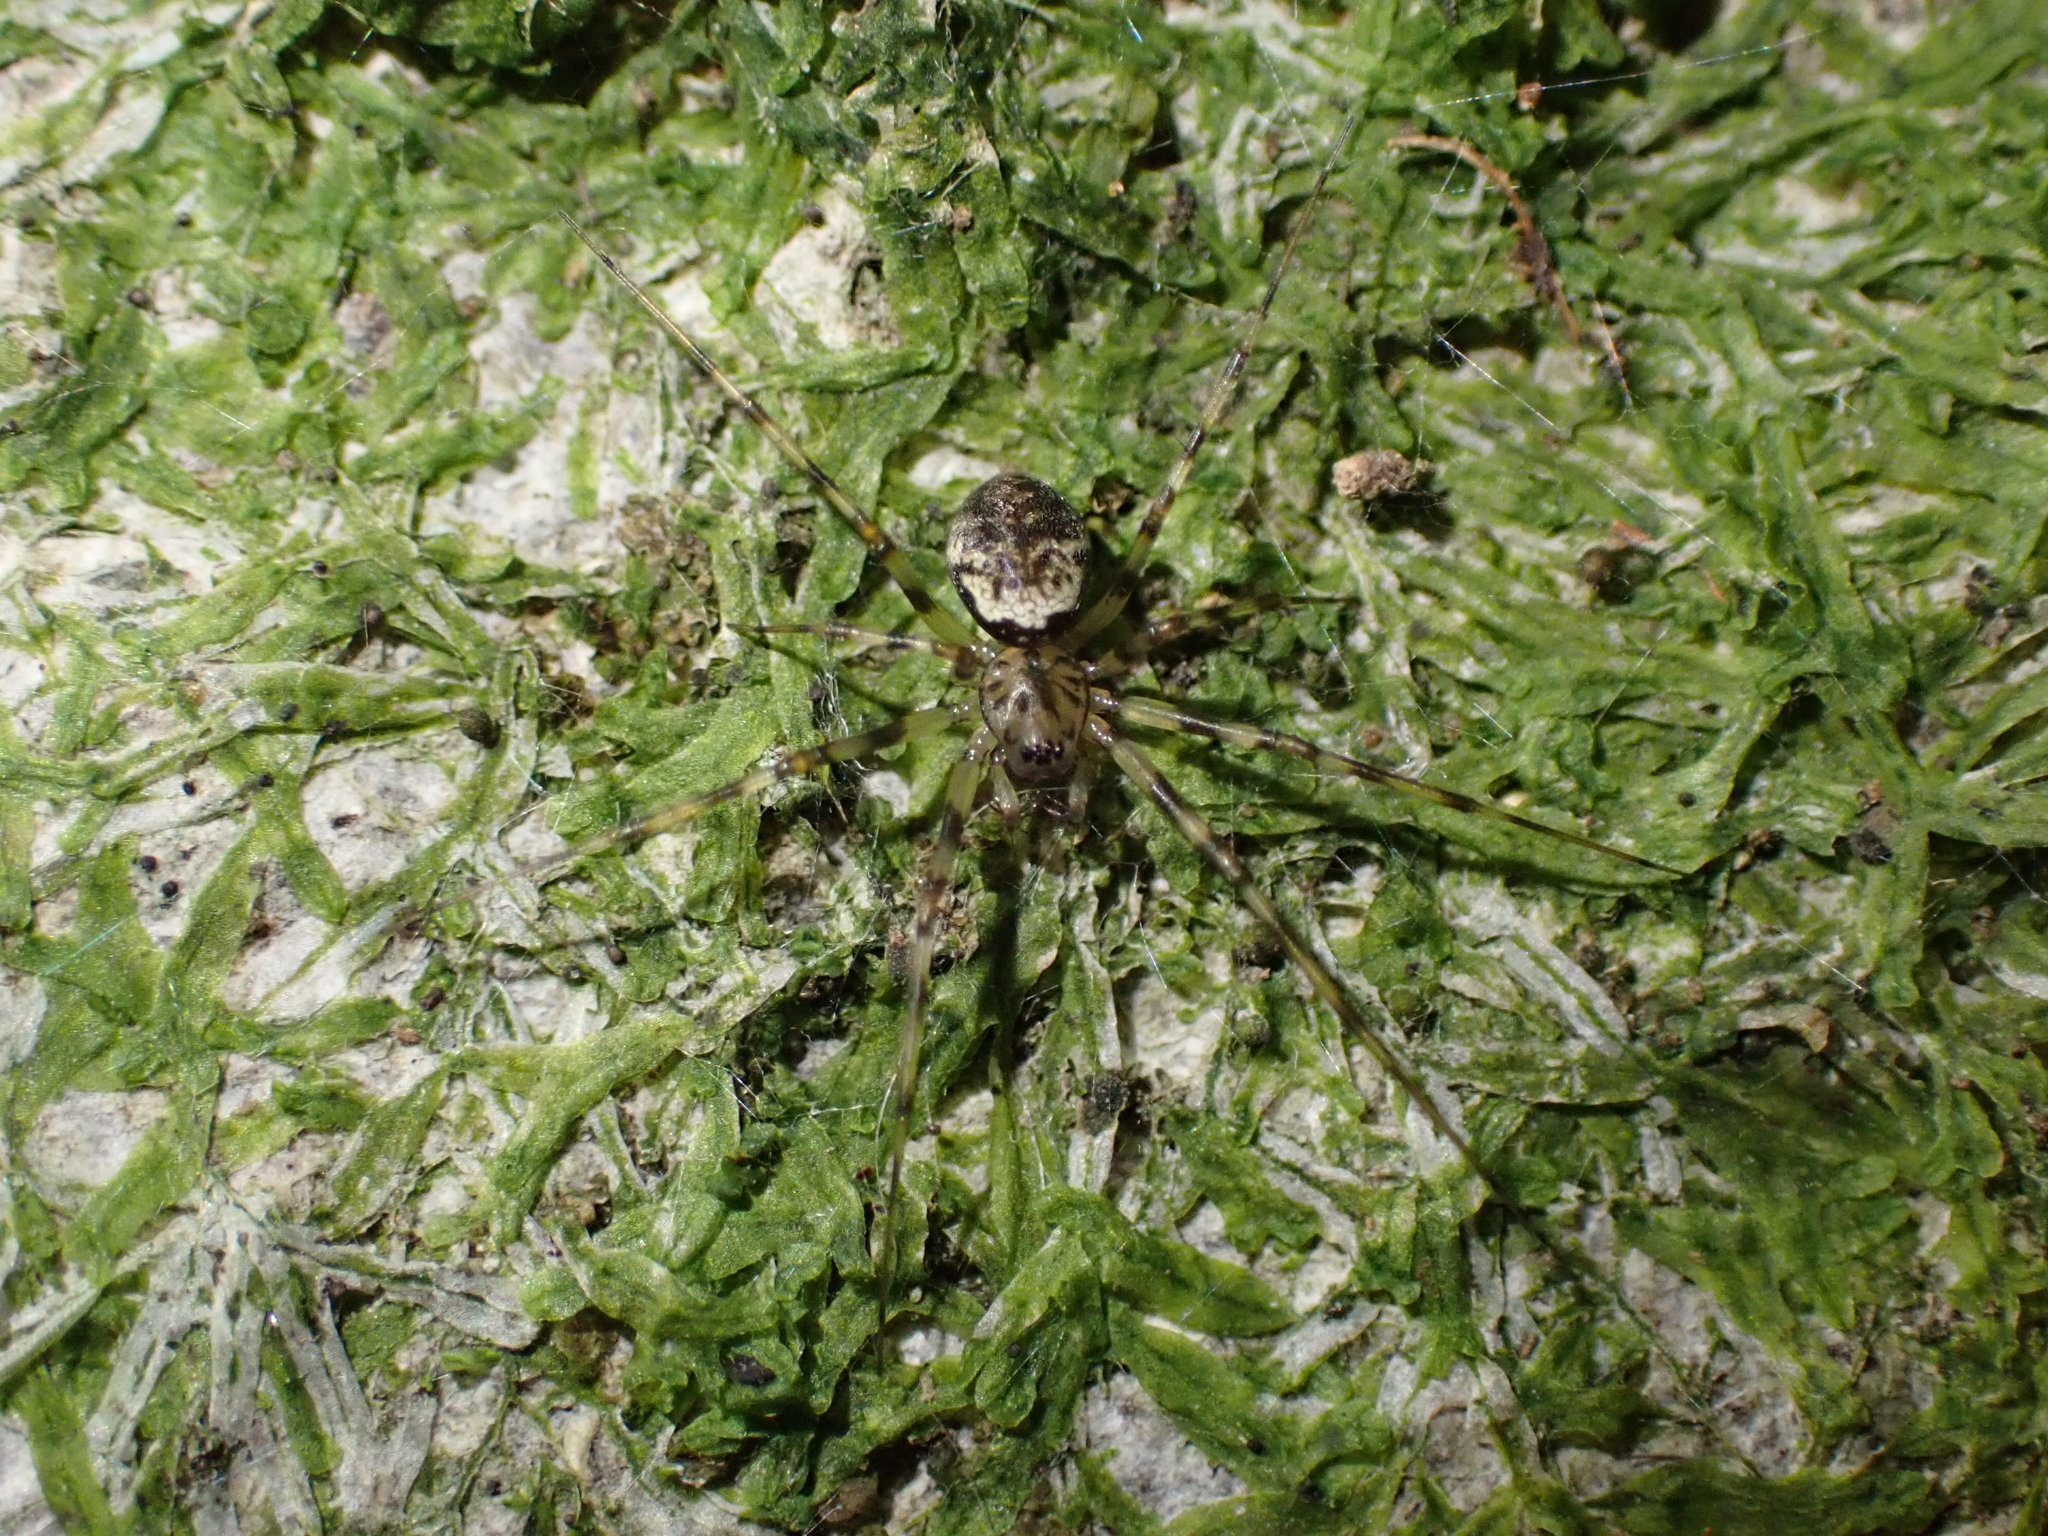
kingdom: Animalia
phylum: Arthropoda
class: Arachnida
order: Araneae
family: Linyphiidae
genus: Drapetisca
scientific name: Drapetisca socialis
